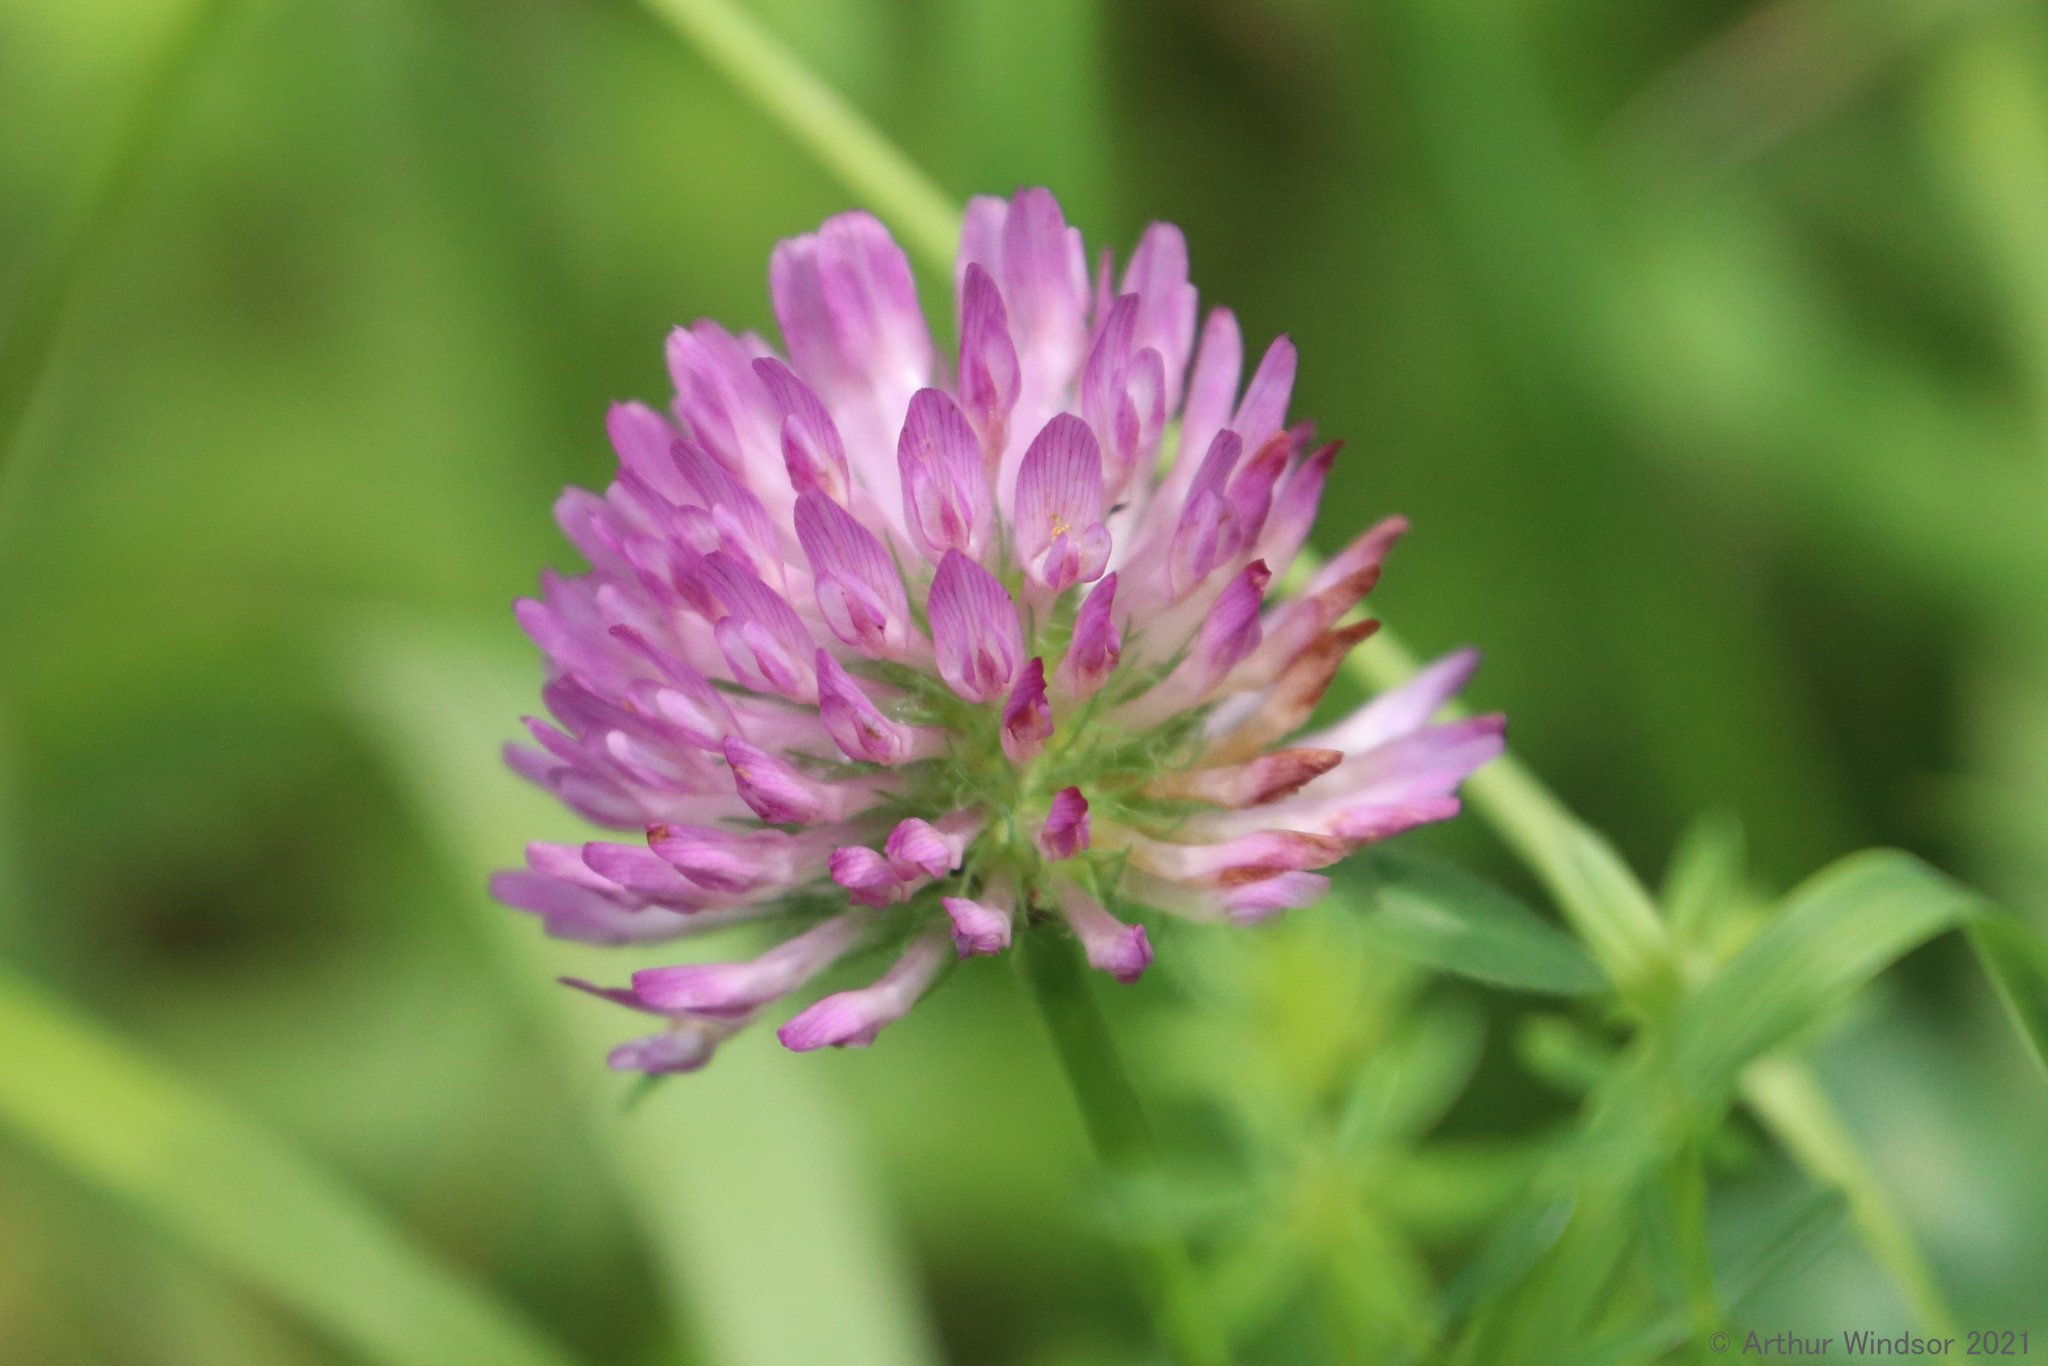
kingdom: Plantae
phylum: Tracheophyta
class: Magnoliopsida
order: Fabales
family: Fabaceae
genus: Trifolium
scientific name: Trifolium pratense
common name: Red clover
